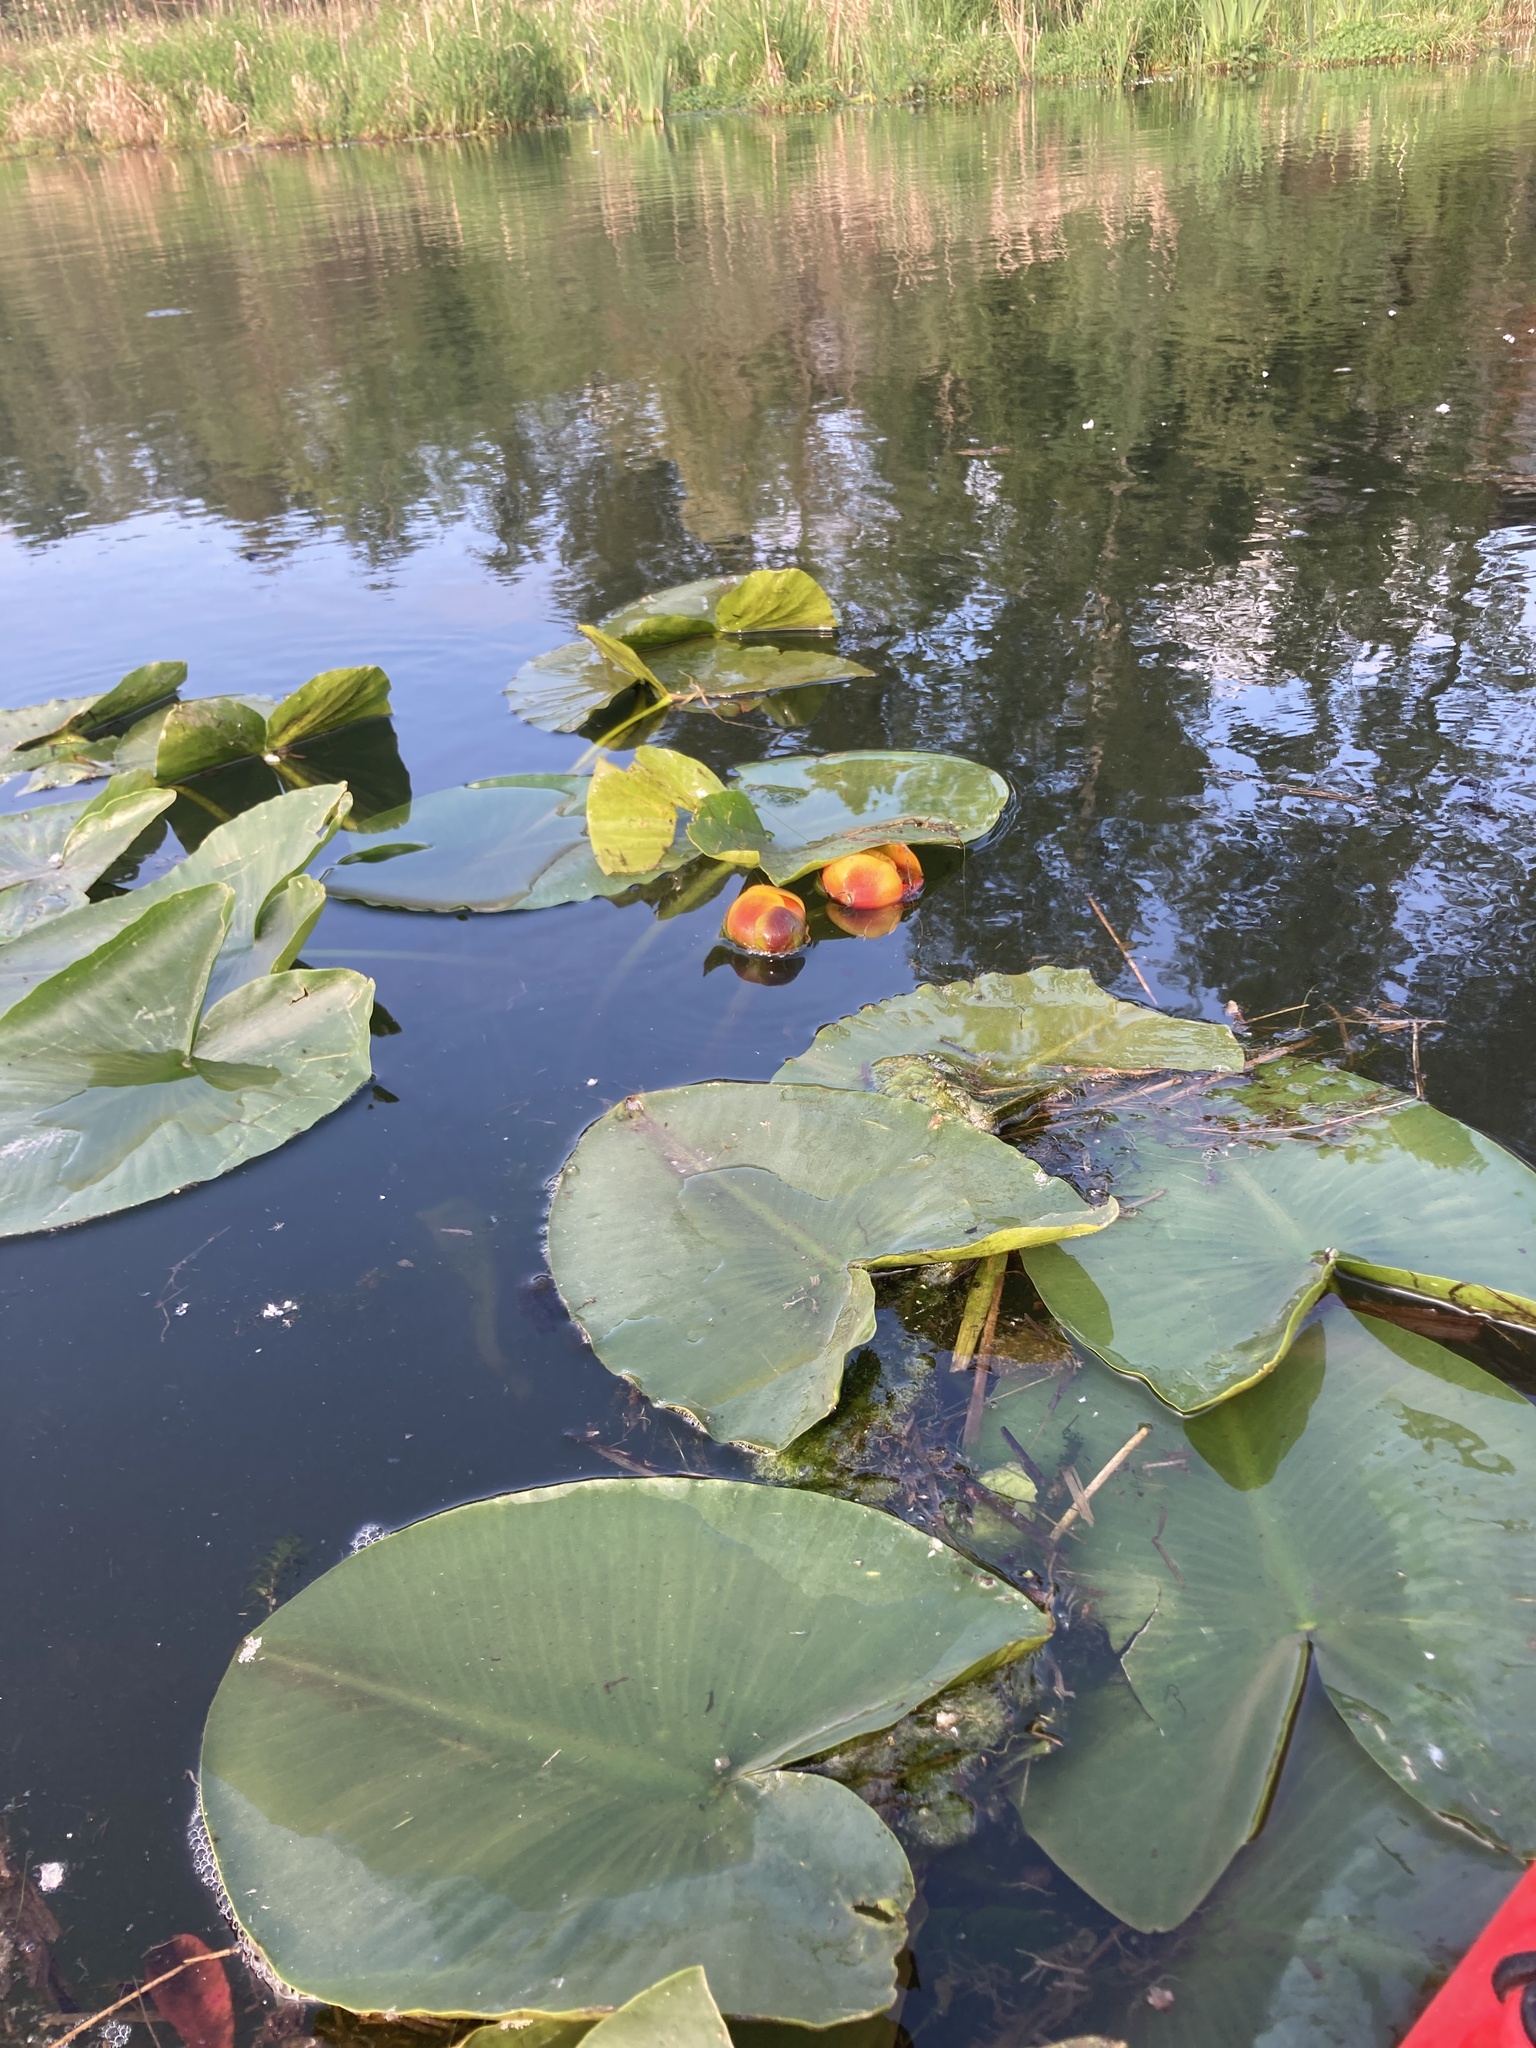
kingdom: Plantae
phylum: Tracheophyta
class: Magnoliopsida
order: Nymphaeales
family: Nymphaeaceae
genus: Nuphar
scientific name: Nuphar polysepala
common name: Rocky mountain cow-lily
